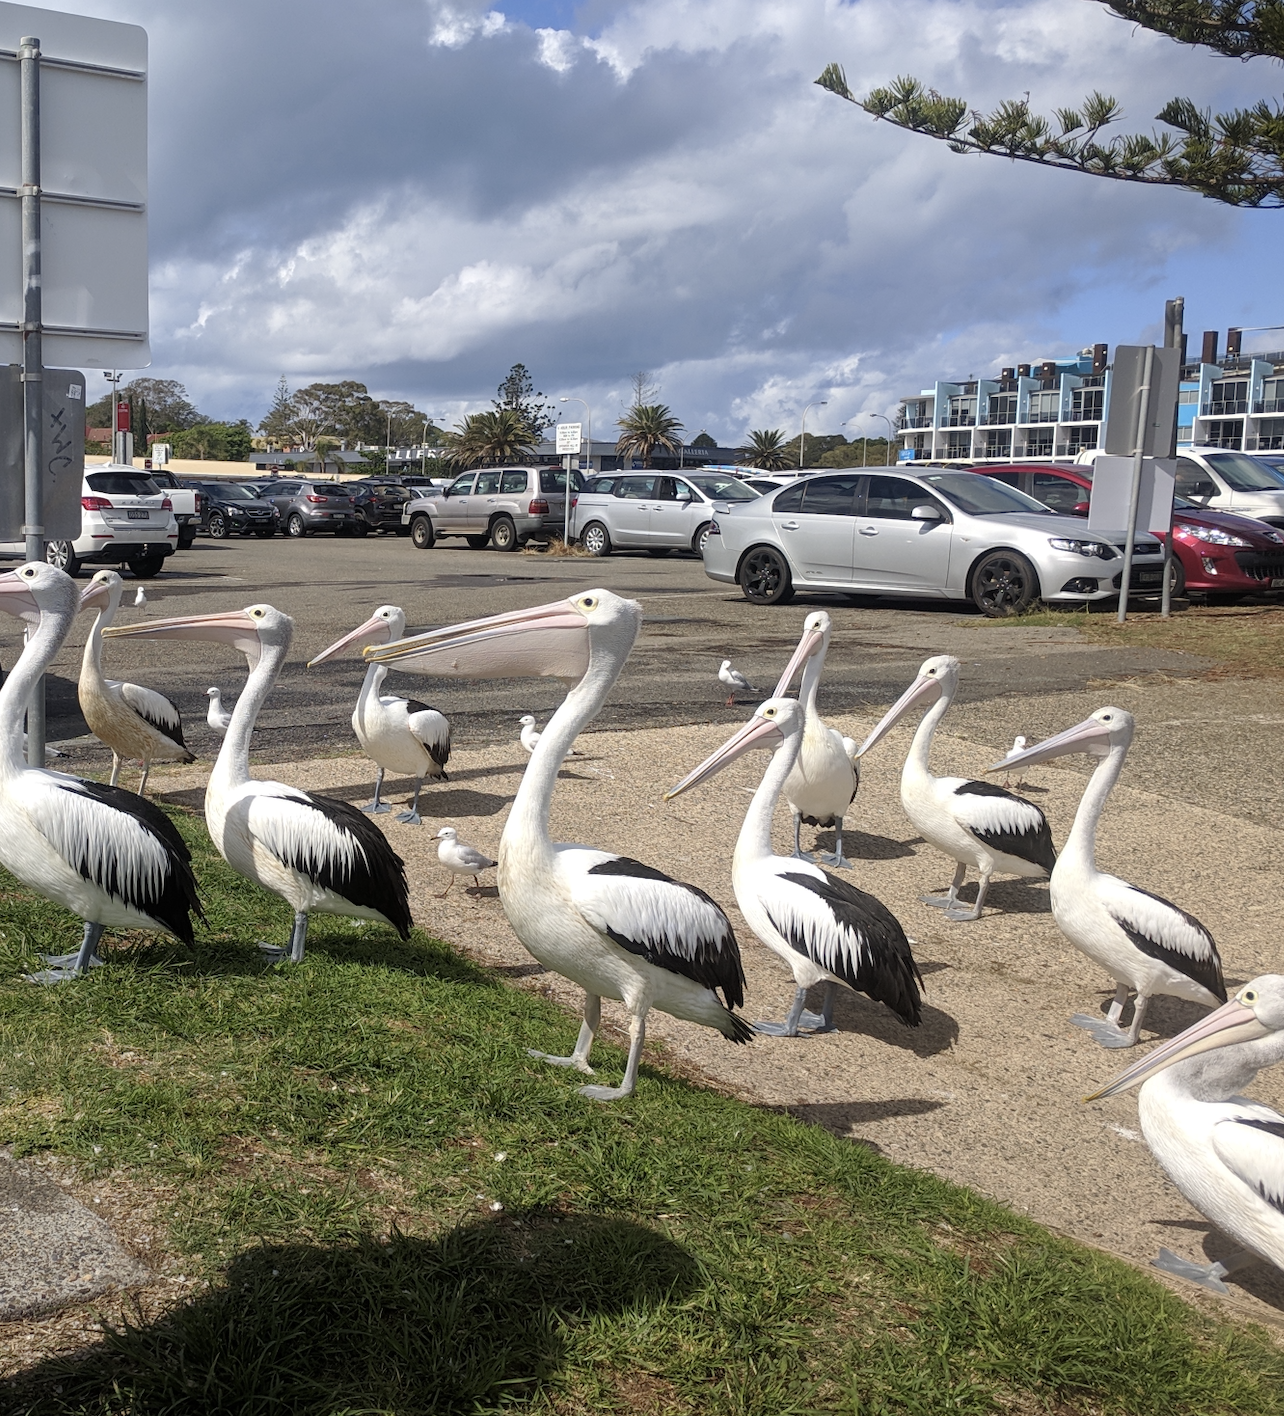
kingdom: Animalia
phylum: Chordata
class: Aves
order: Pelecaniformes
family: Pelecanidae
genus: Pelecanus
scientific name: Pelecanus conspicillatus
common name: Australian pelican
